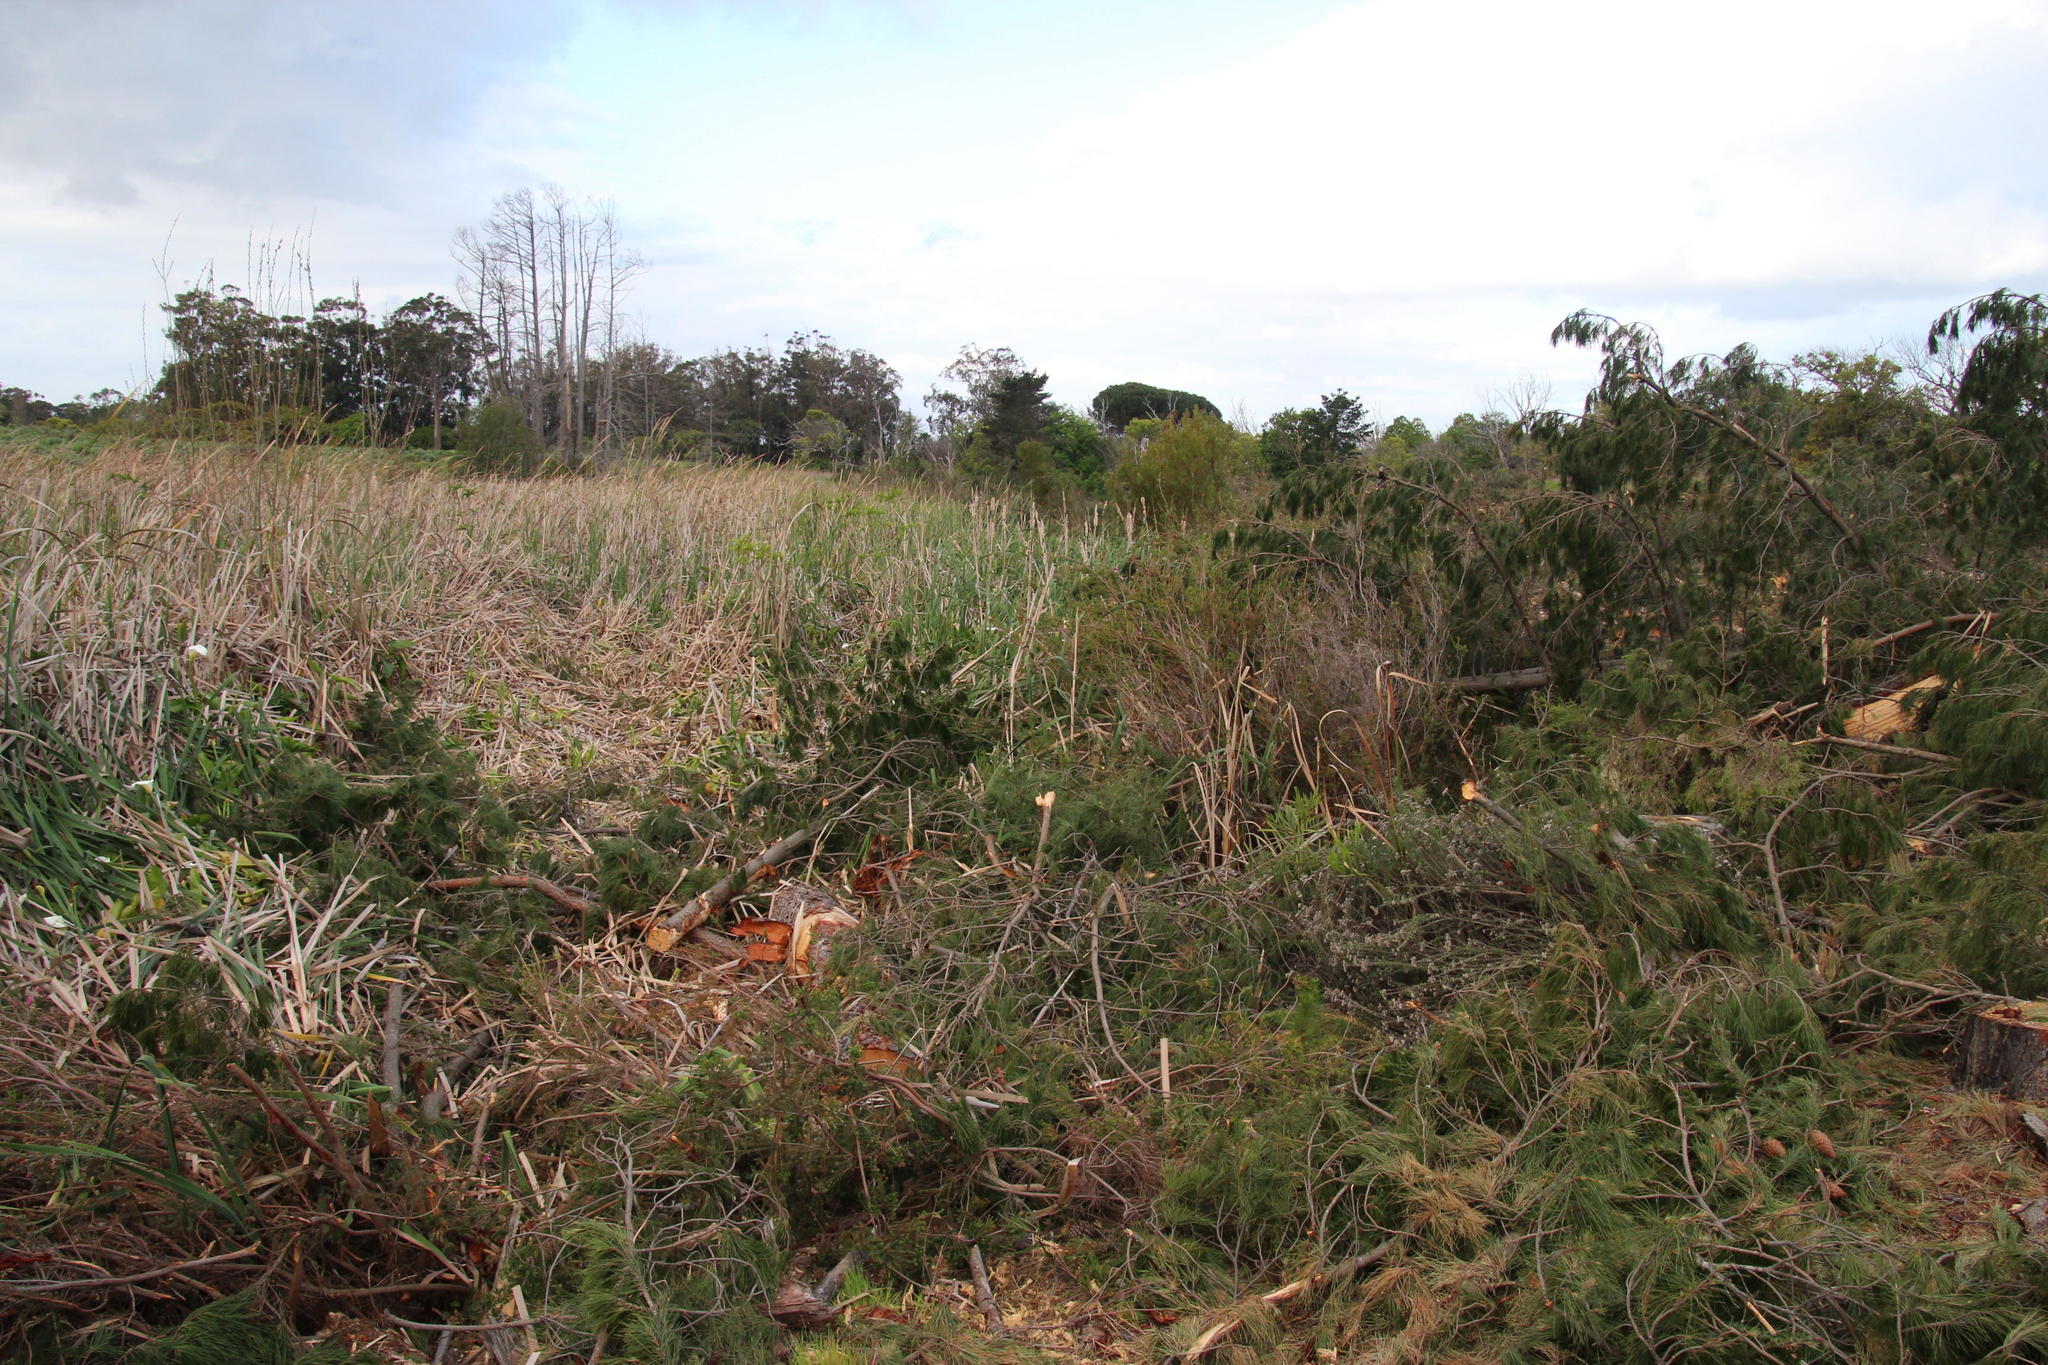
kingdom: Plantae
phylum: Tracheophyta
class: Magnoliopsida
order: Ericales
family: Ericaceae
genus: Erica
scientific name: Erica verticillata
